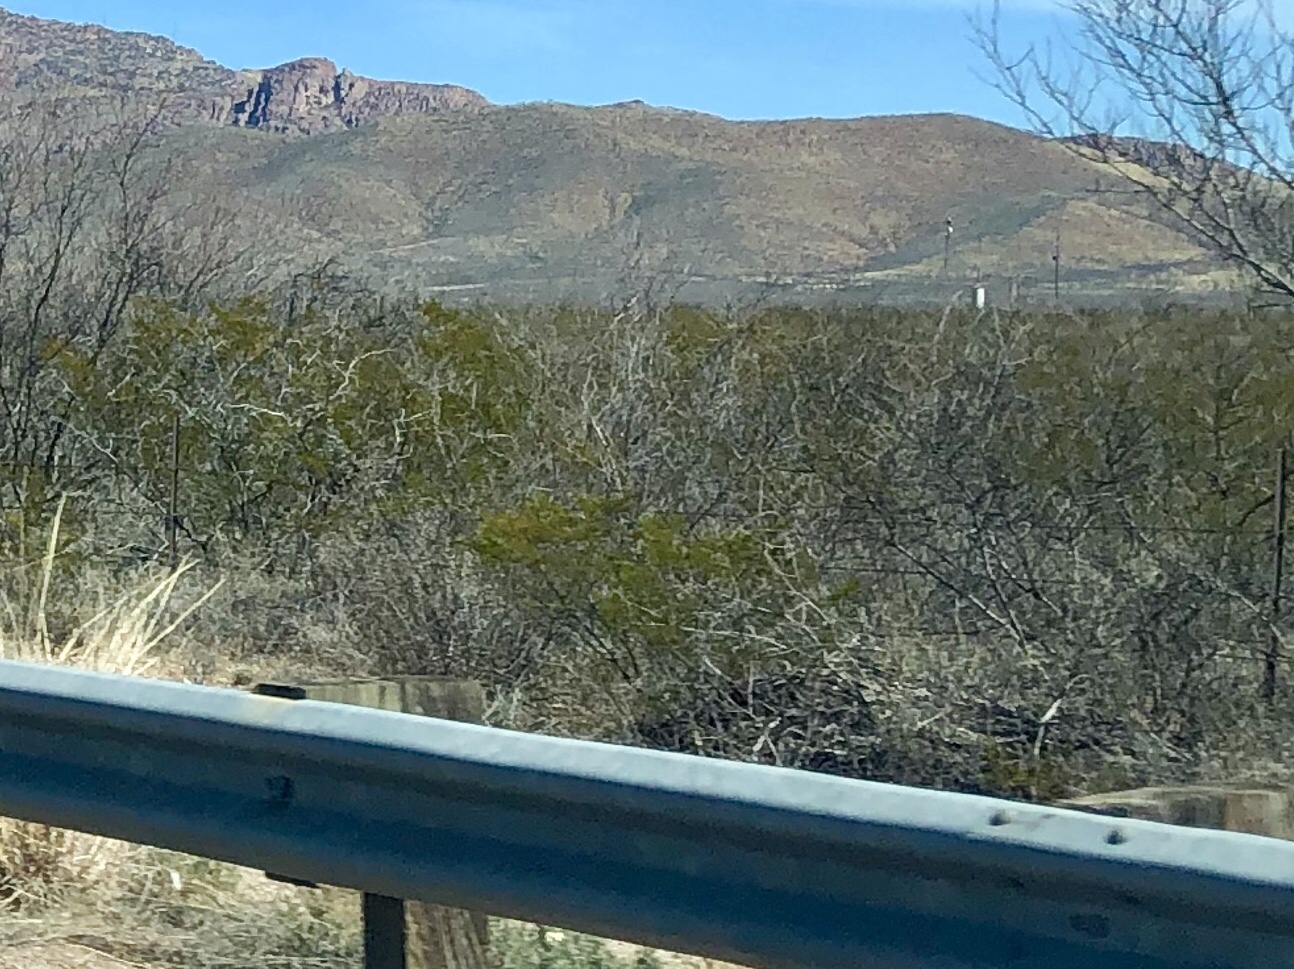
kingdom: Plantae
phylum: Tracheophyta
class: Magnoliopsida
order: Zygophyllales
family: Zygophyllaceae
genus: Larrea
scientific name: Larrea tridentata
